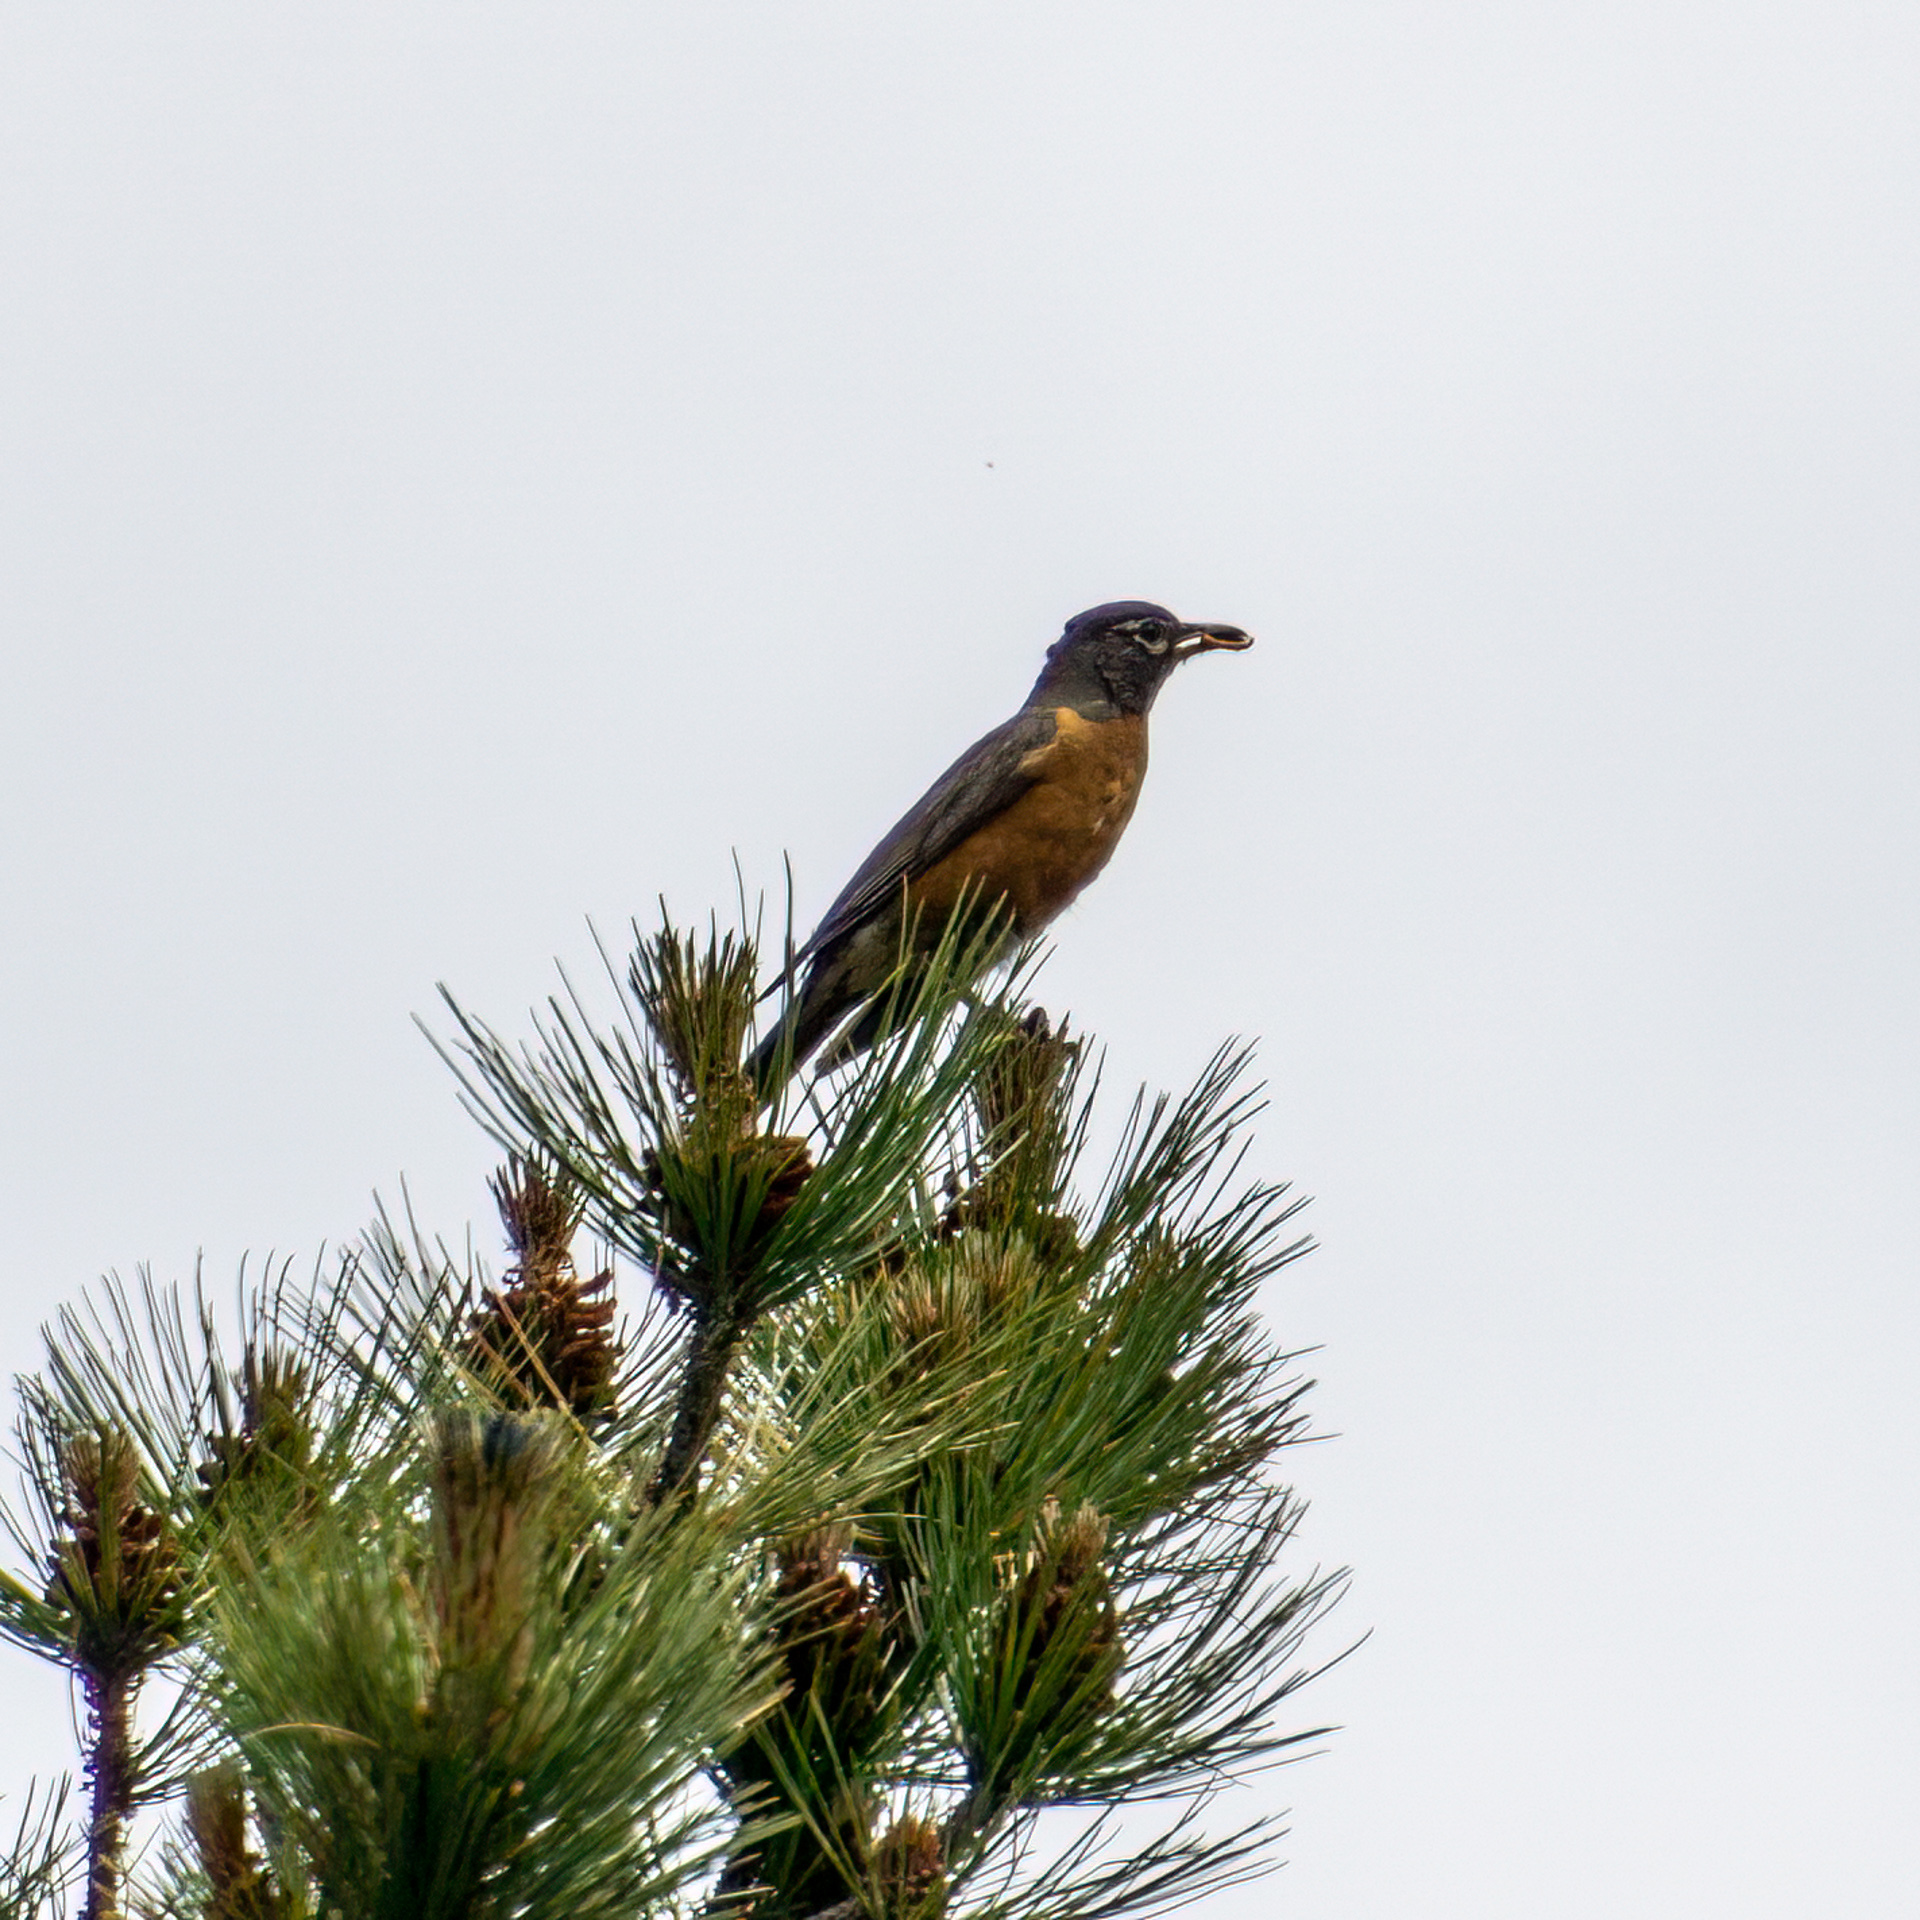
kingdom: Animalia
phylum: Chordata
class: Aves
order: Passeriformes
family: Turdidae
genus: Turdus
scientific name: Turdus migratorius
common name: American robin
